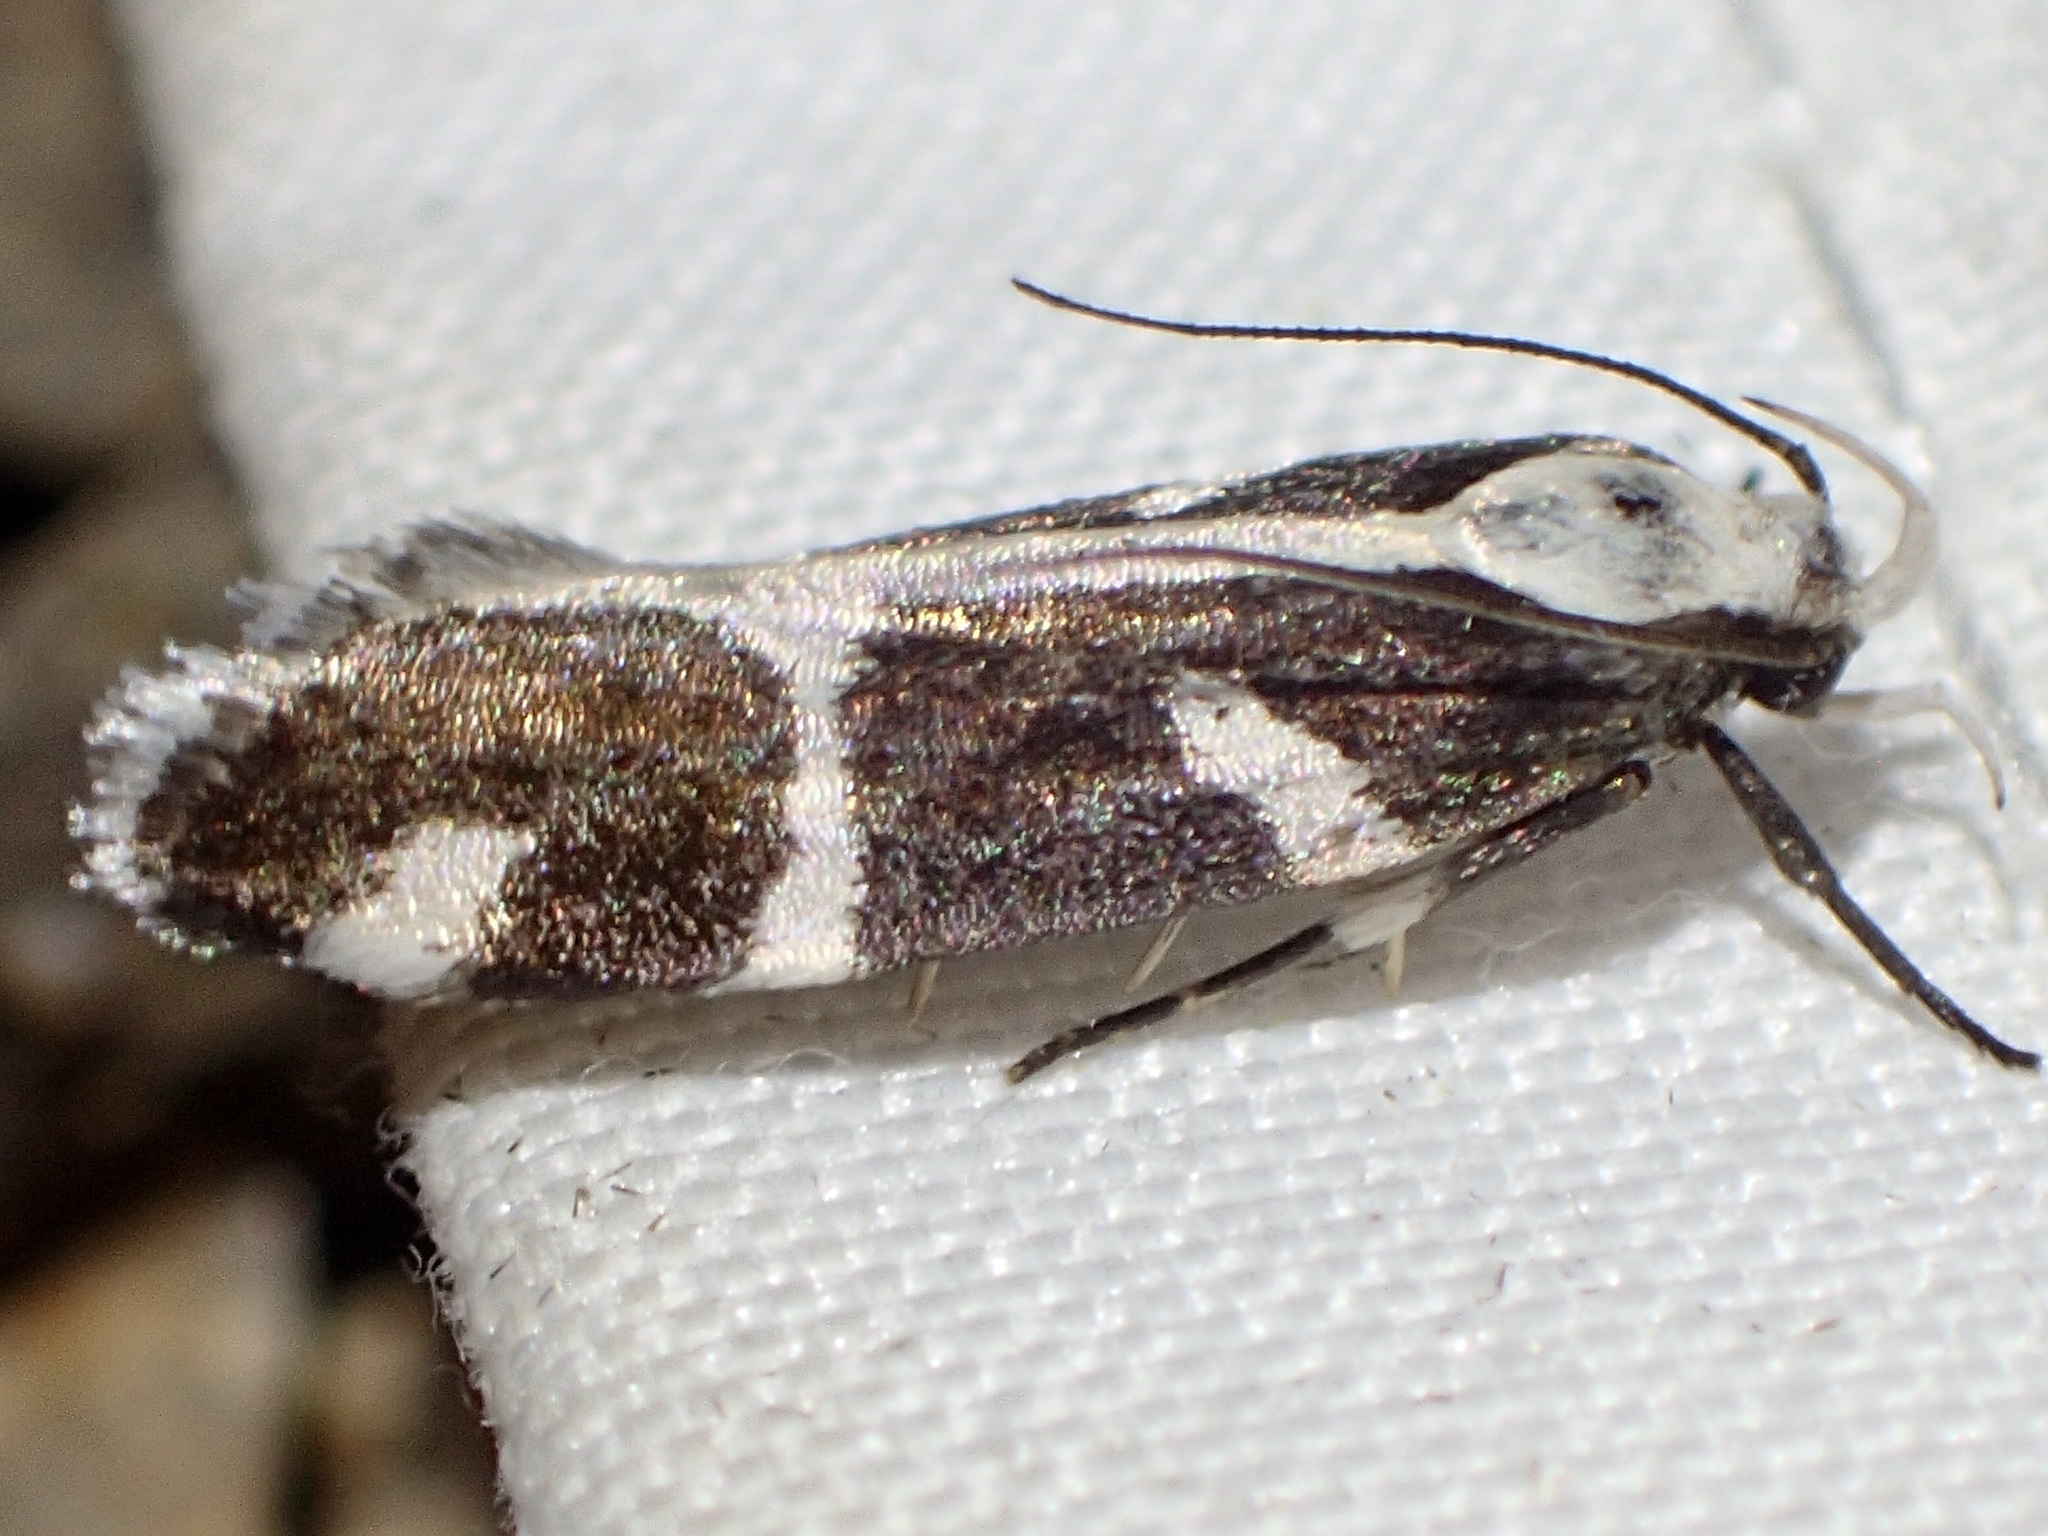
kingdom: Animalia
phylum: Arthropoda
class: Insecta
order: Lepidoptera
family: Gelechiidae
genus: Epilechia
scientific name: Epilechia catalinella
